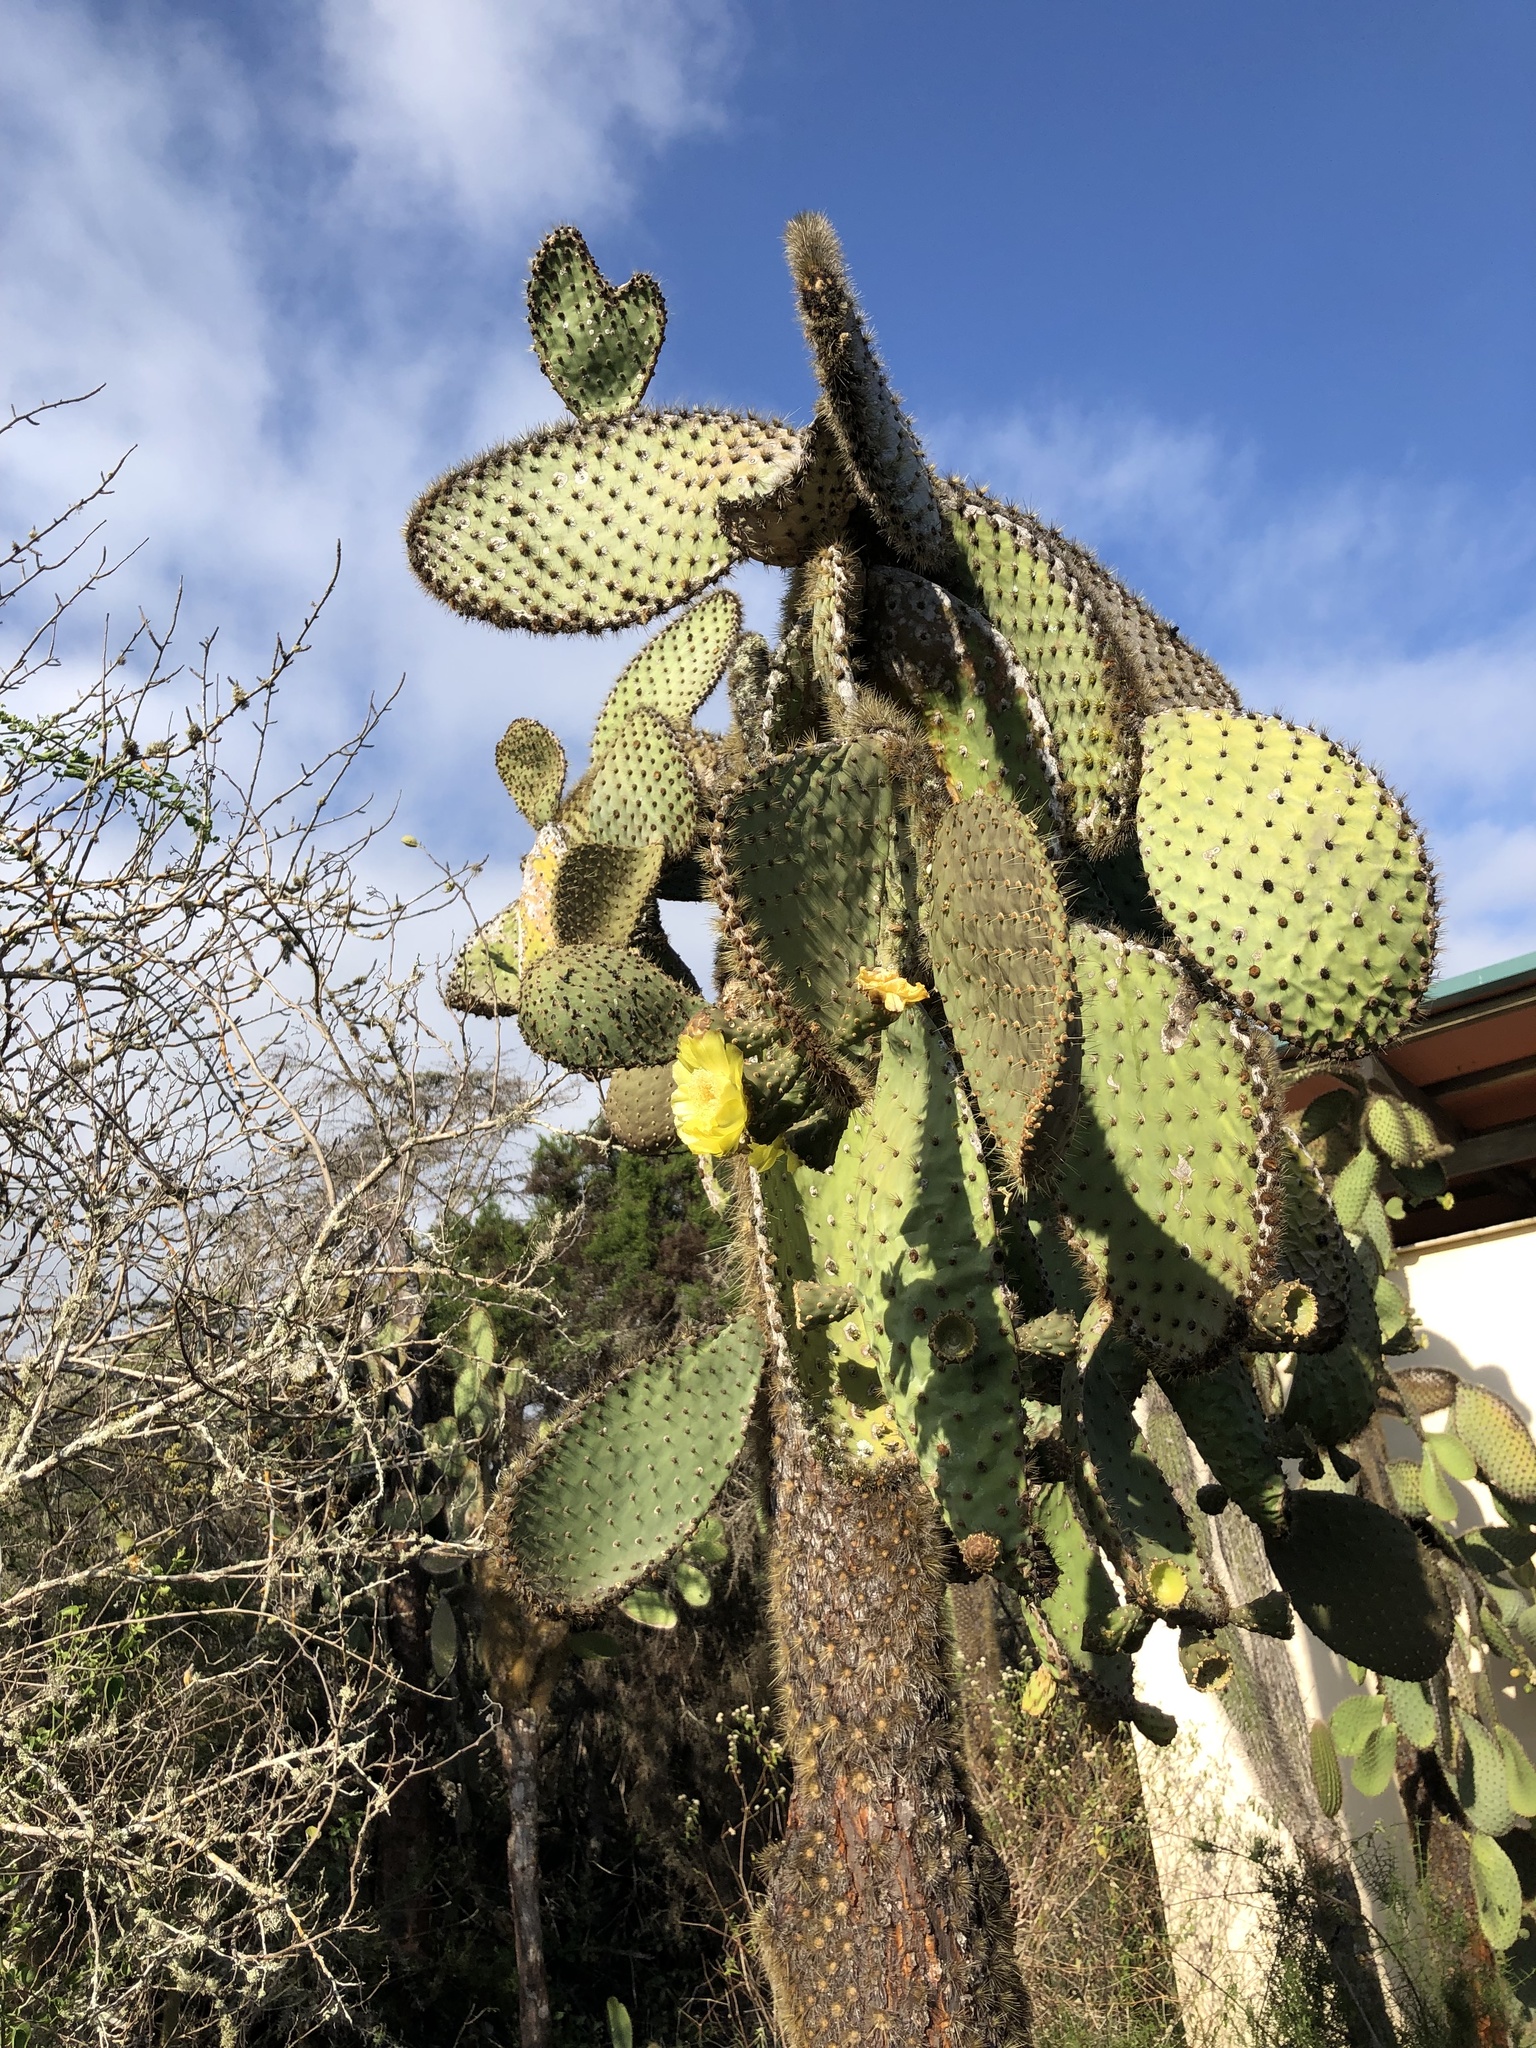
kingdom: Plantae
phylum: Tracheophyta
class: Magnoliopsida
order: Caryophyllales
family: Cactaceae
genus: Opuntia
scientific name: Opuntia galapageia
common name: Galápagos prickly pear
